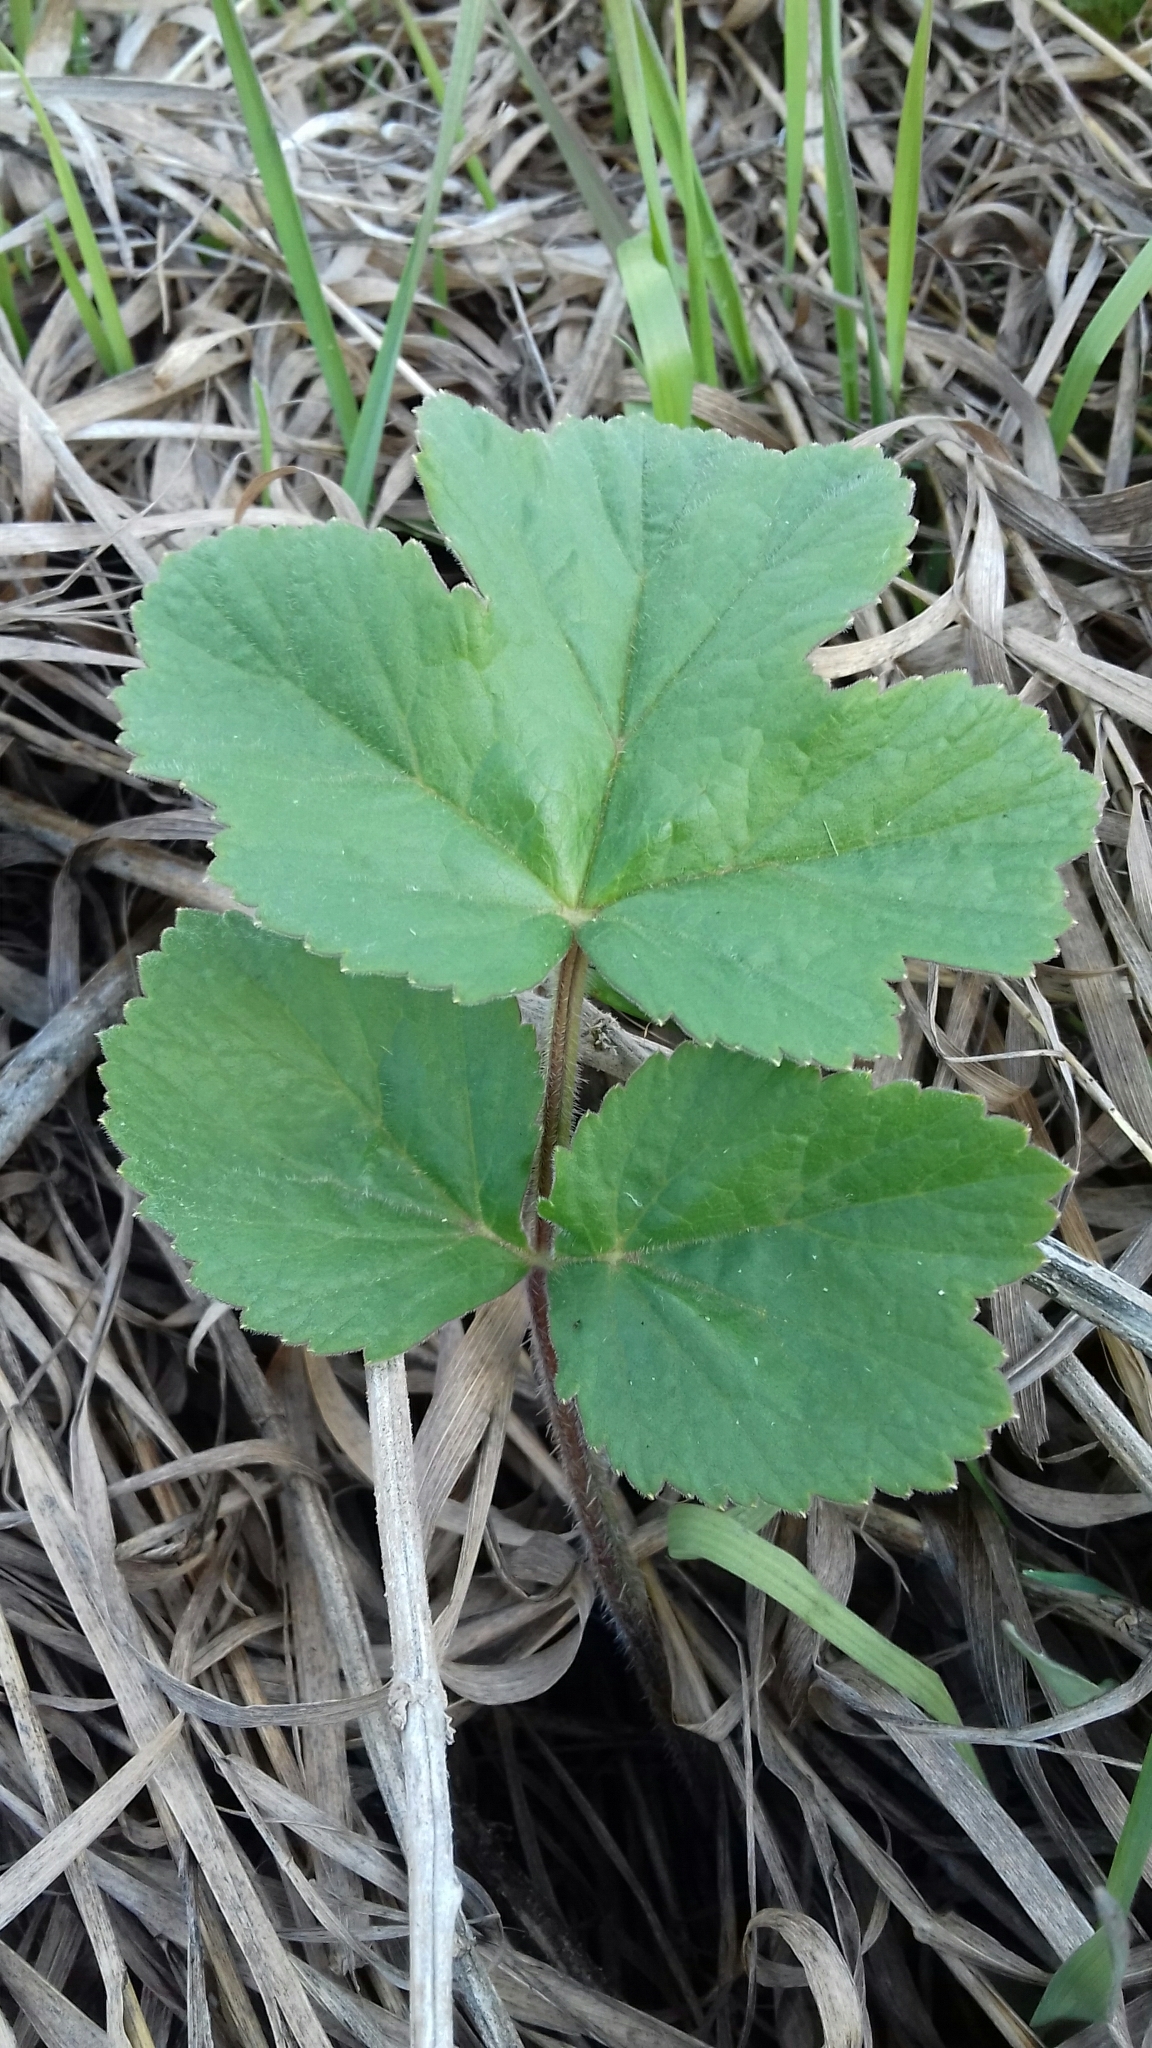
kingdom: Plantae
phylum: Tracheophyta
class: Magnoliopsida
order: Apiales
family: Apiaceae
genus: Heracleum
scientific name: Heracleum sphondylium
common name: Hogweed
